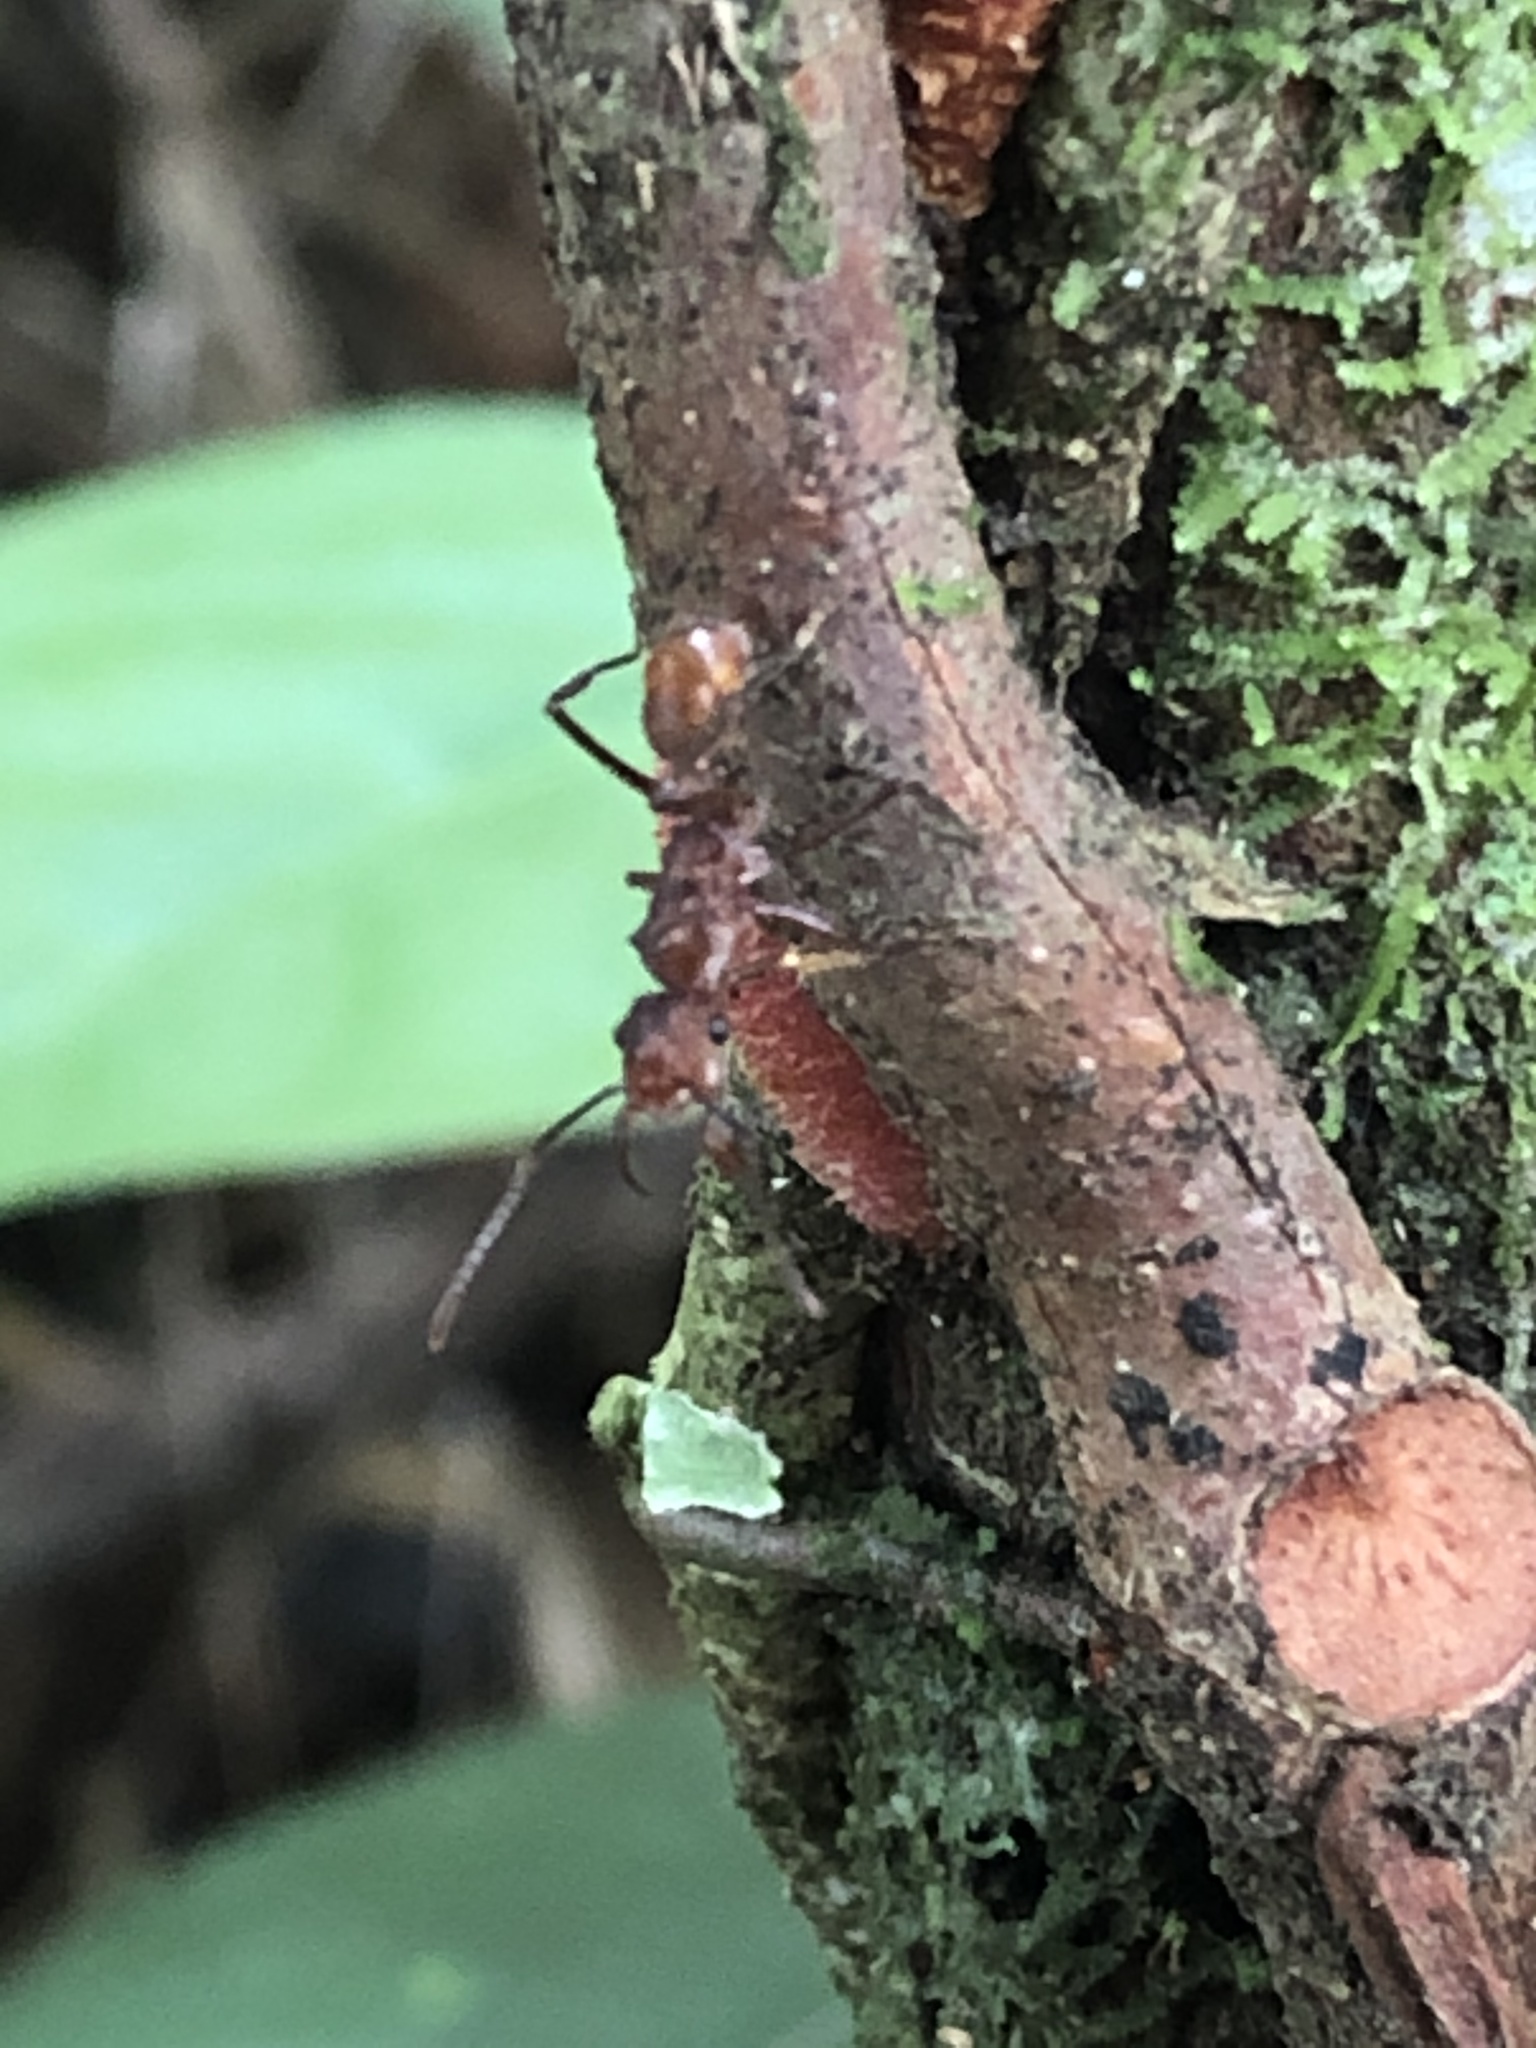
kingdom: Animalia
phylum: Arthropoda
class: Insecta
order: Hymenoptera
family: Formicidae
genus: Ectatomma
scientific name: Ectatomma tuberculatum
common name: Ant
